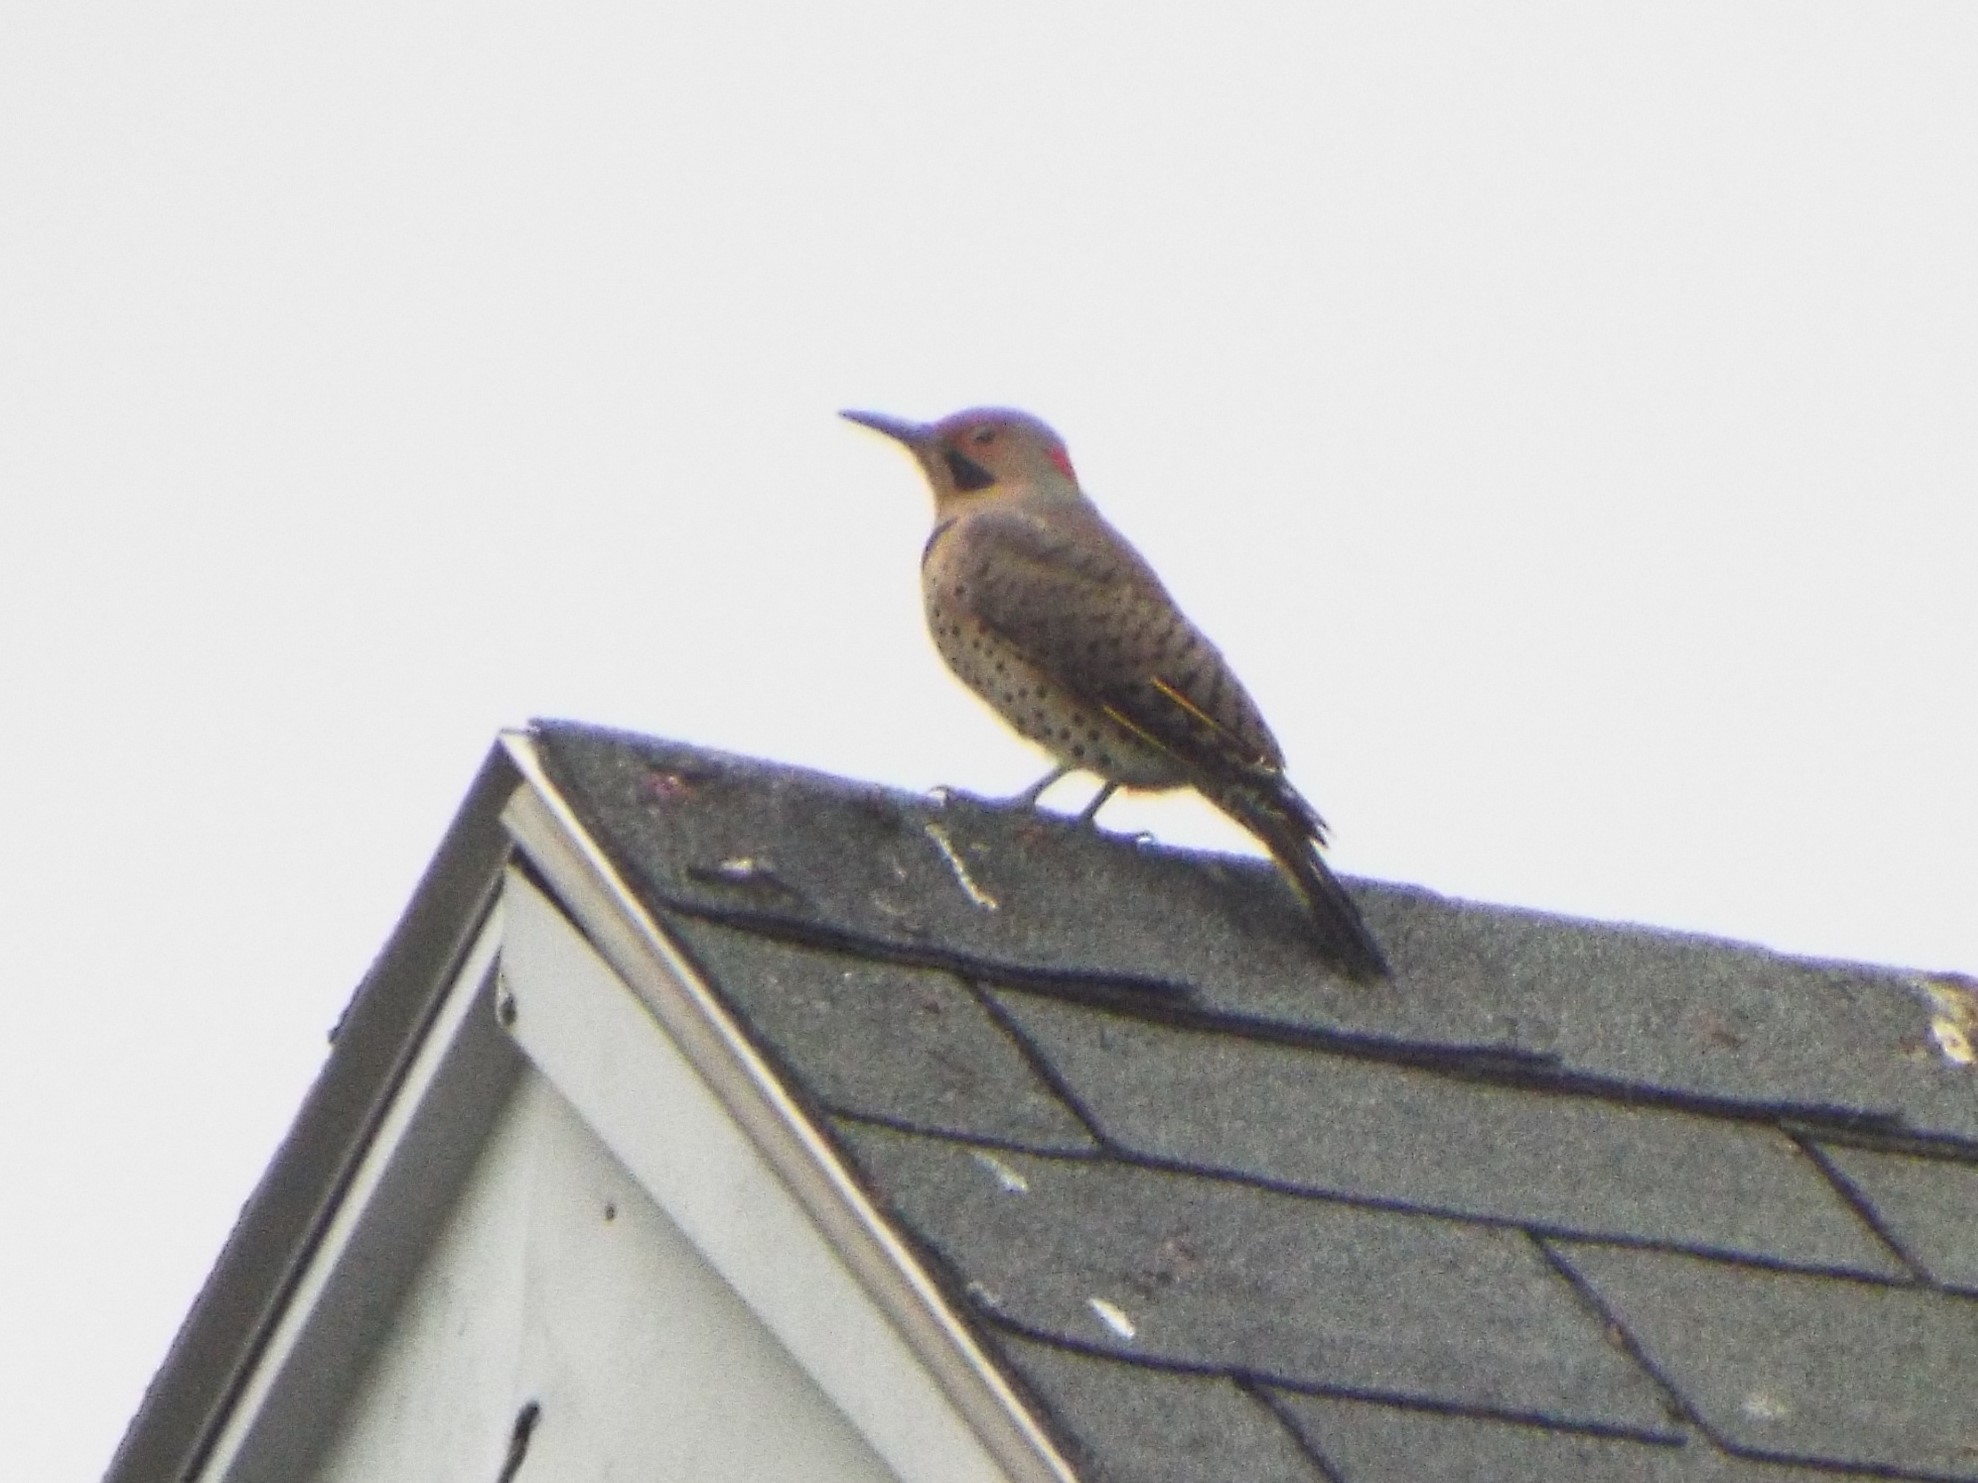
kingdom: Animalia
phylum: Chordata
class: Aves
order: Piciformes
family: Picidae
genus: Colaptes
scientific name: Colaptes auratus
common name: Northern flicker
